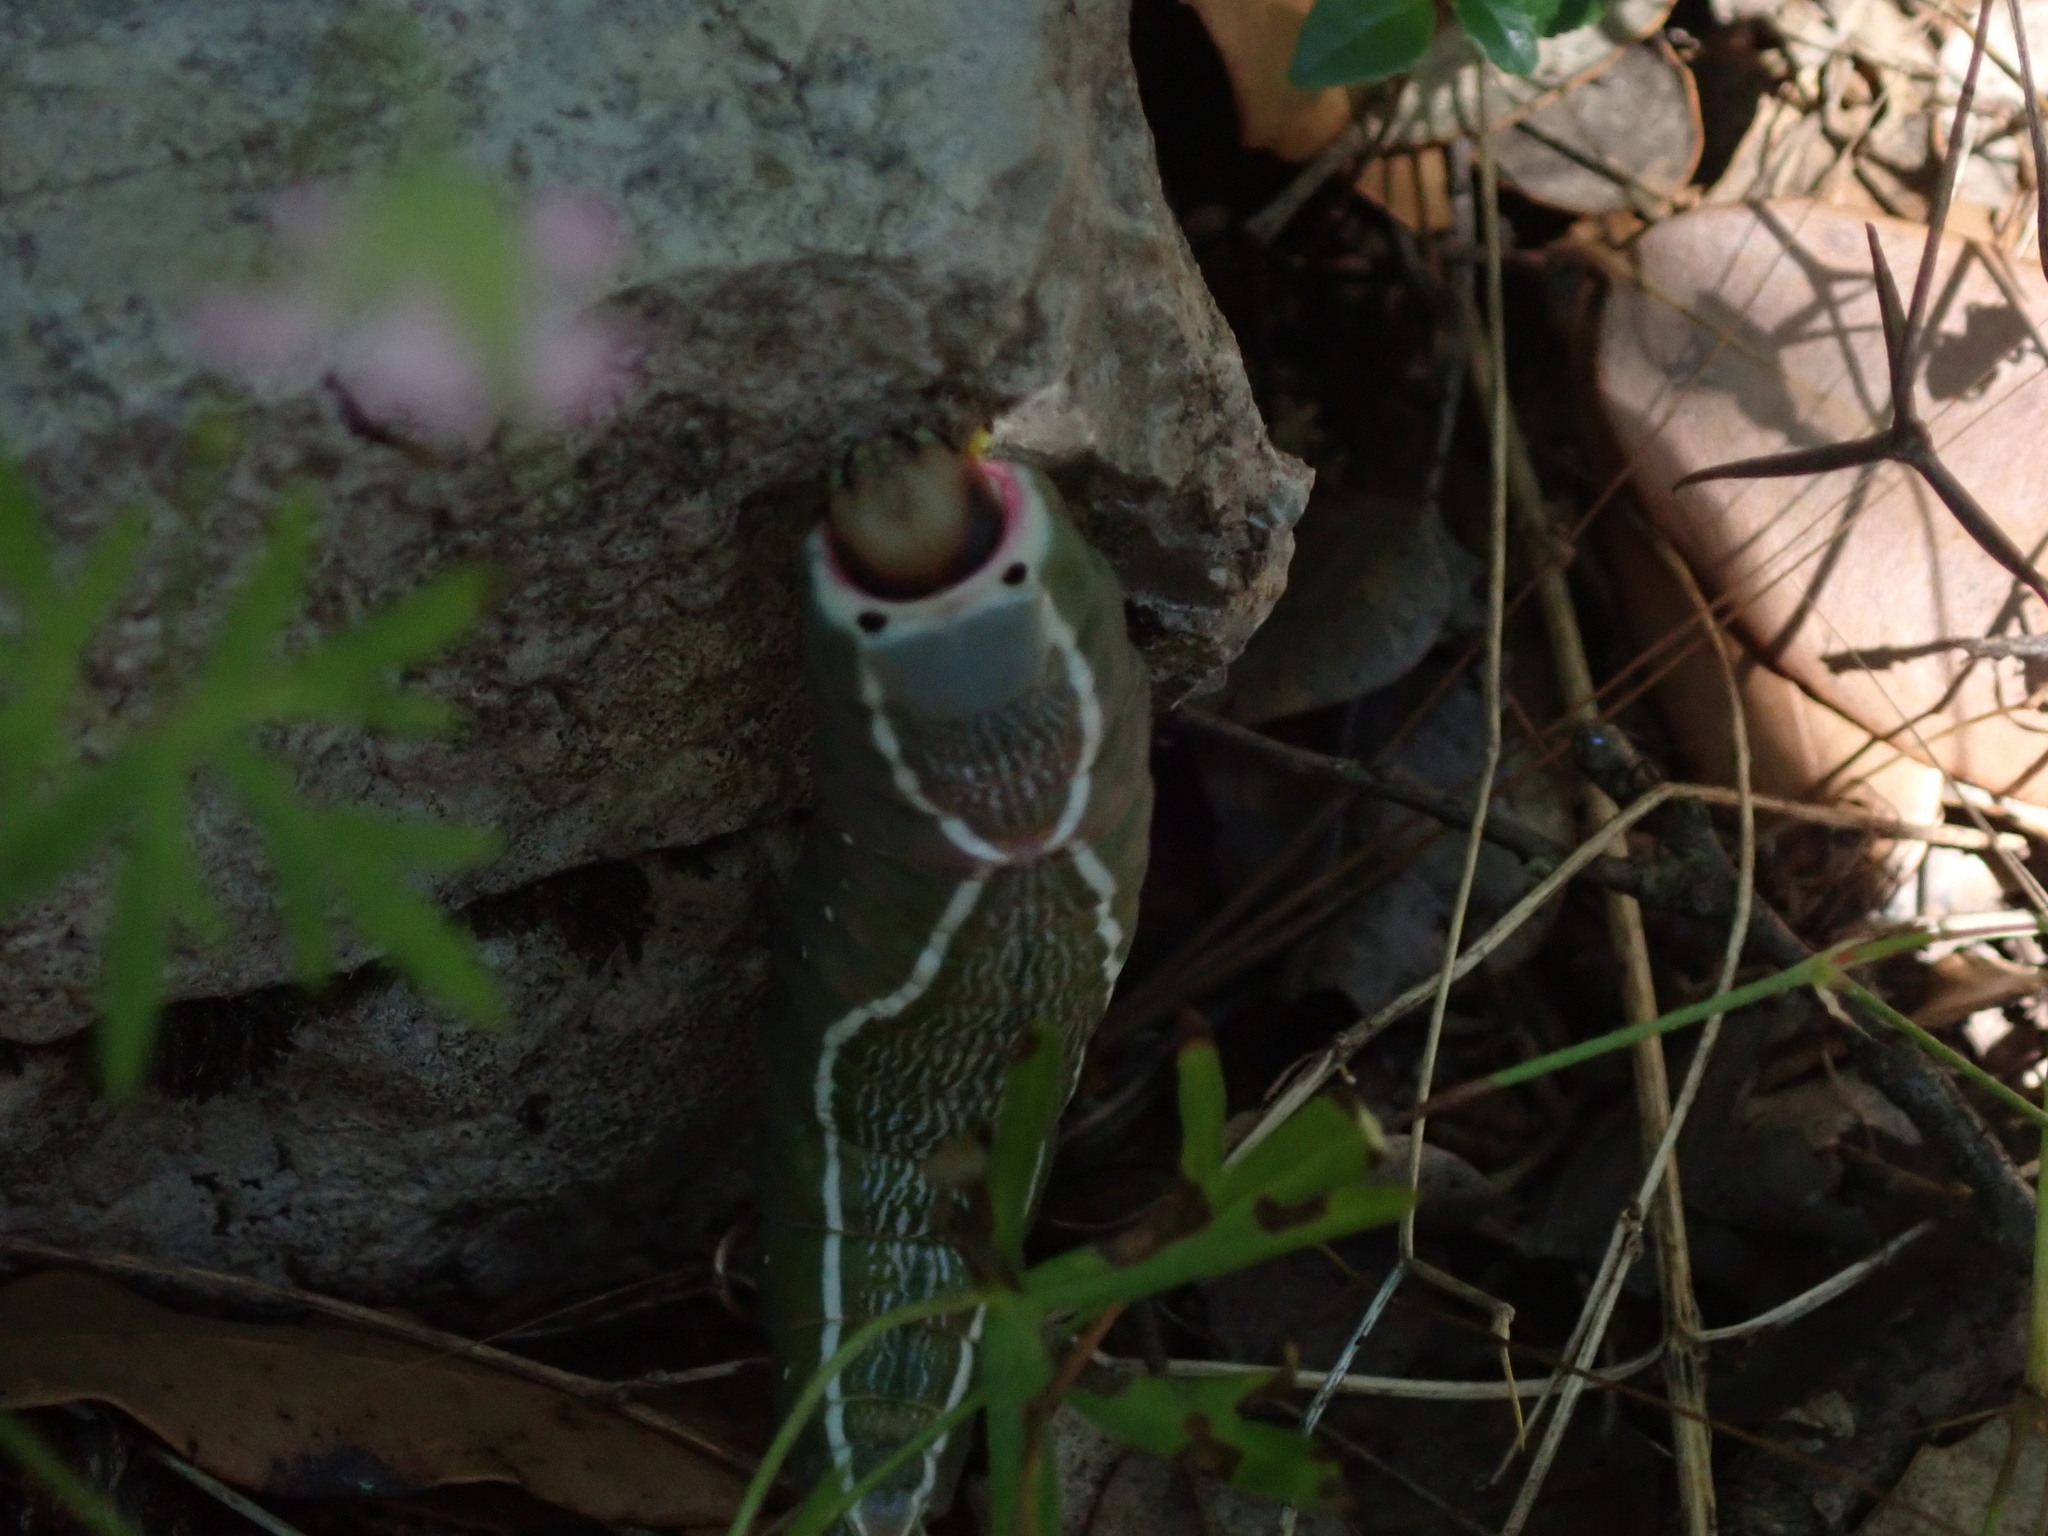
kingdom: Animalia
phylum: Arthropoda
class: Insecta
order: Lepidoptera
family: Notodontidae
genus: Cerura
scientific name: Cerura iberica
